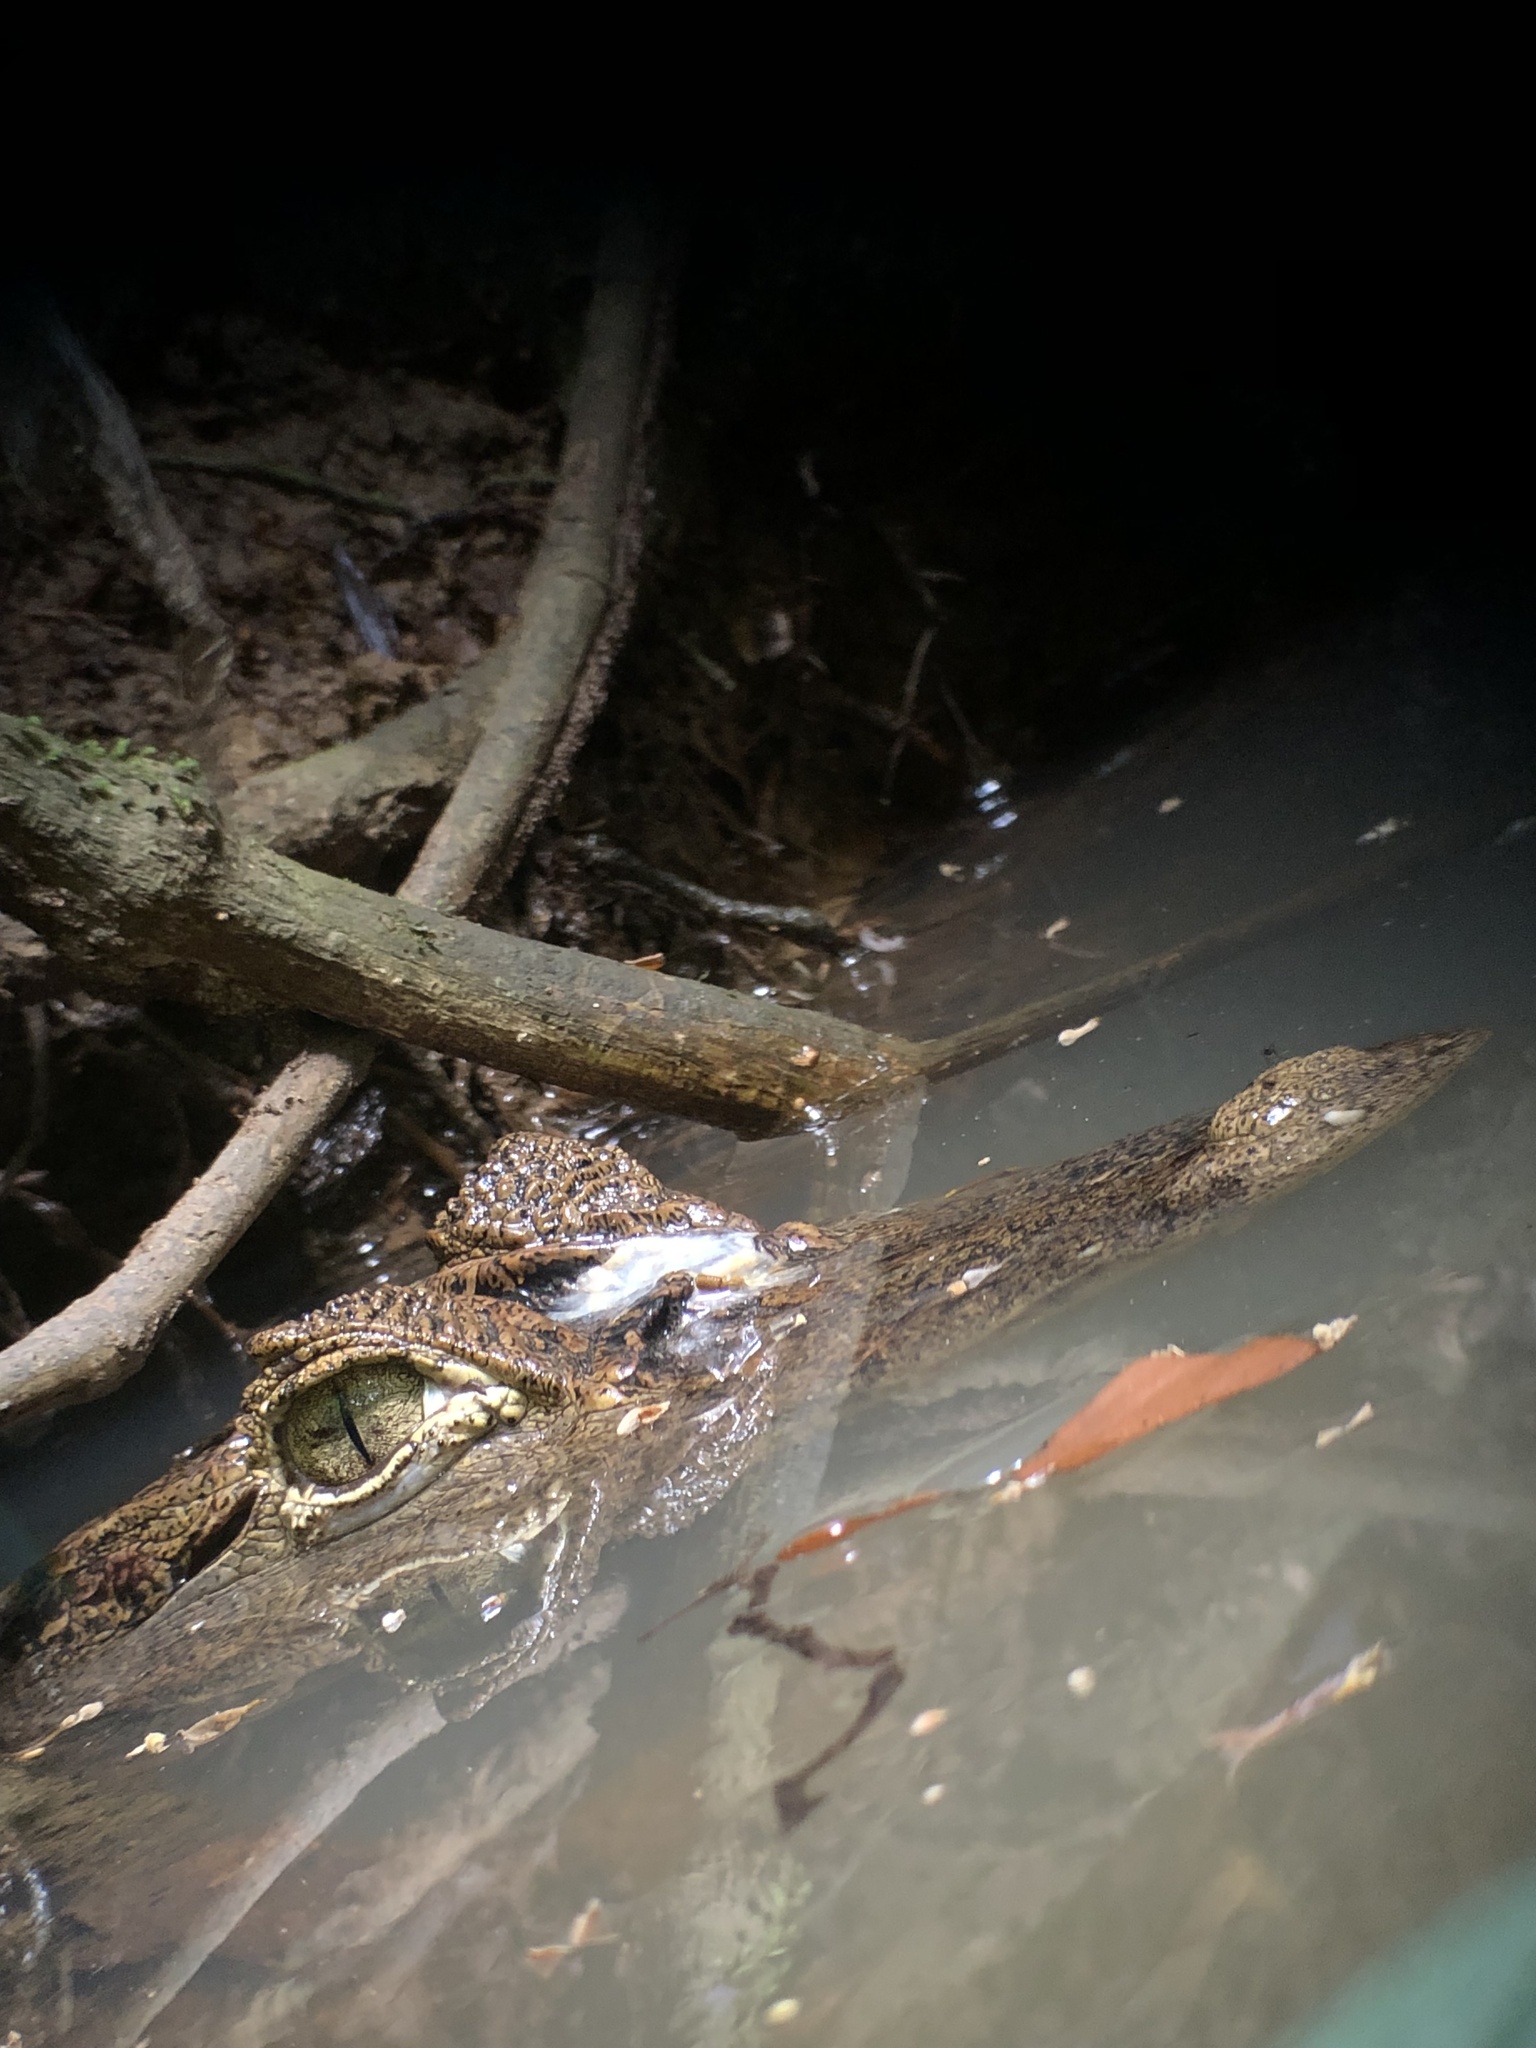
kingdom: Animalia
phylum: Chordata
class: Crocodylia
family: Alligatoridae
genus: Caiman
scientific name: Caiman crocodilus
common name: Common caiman
